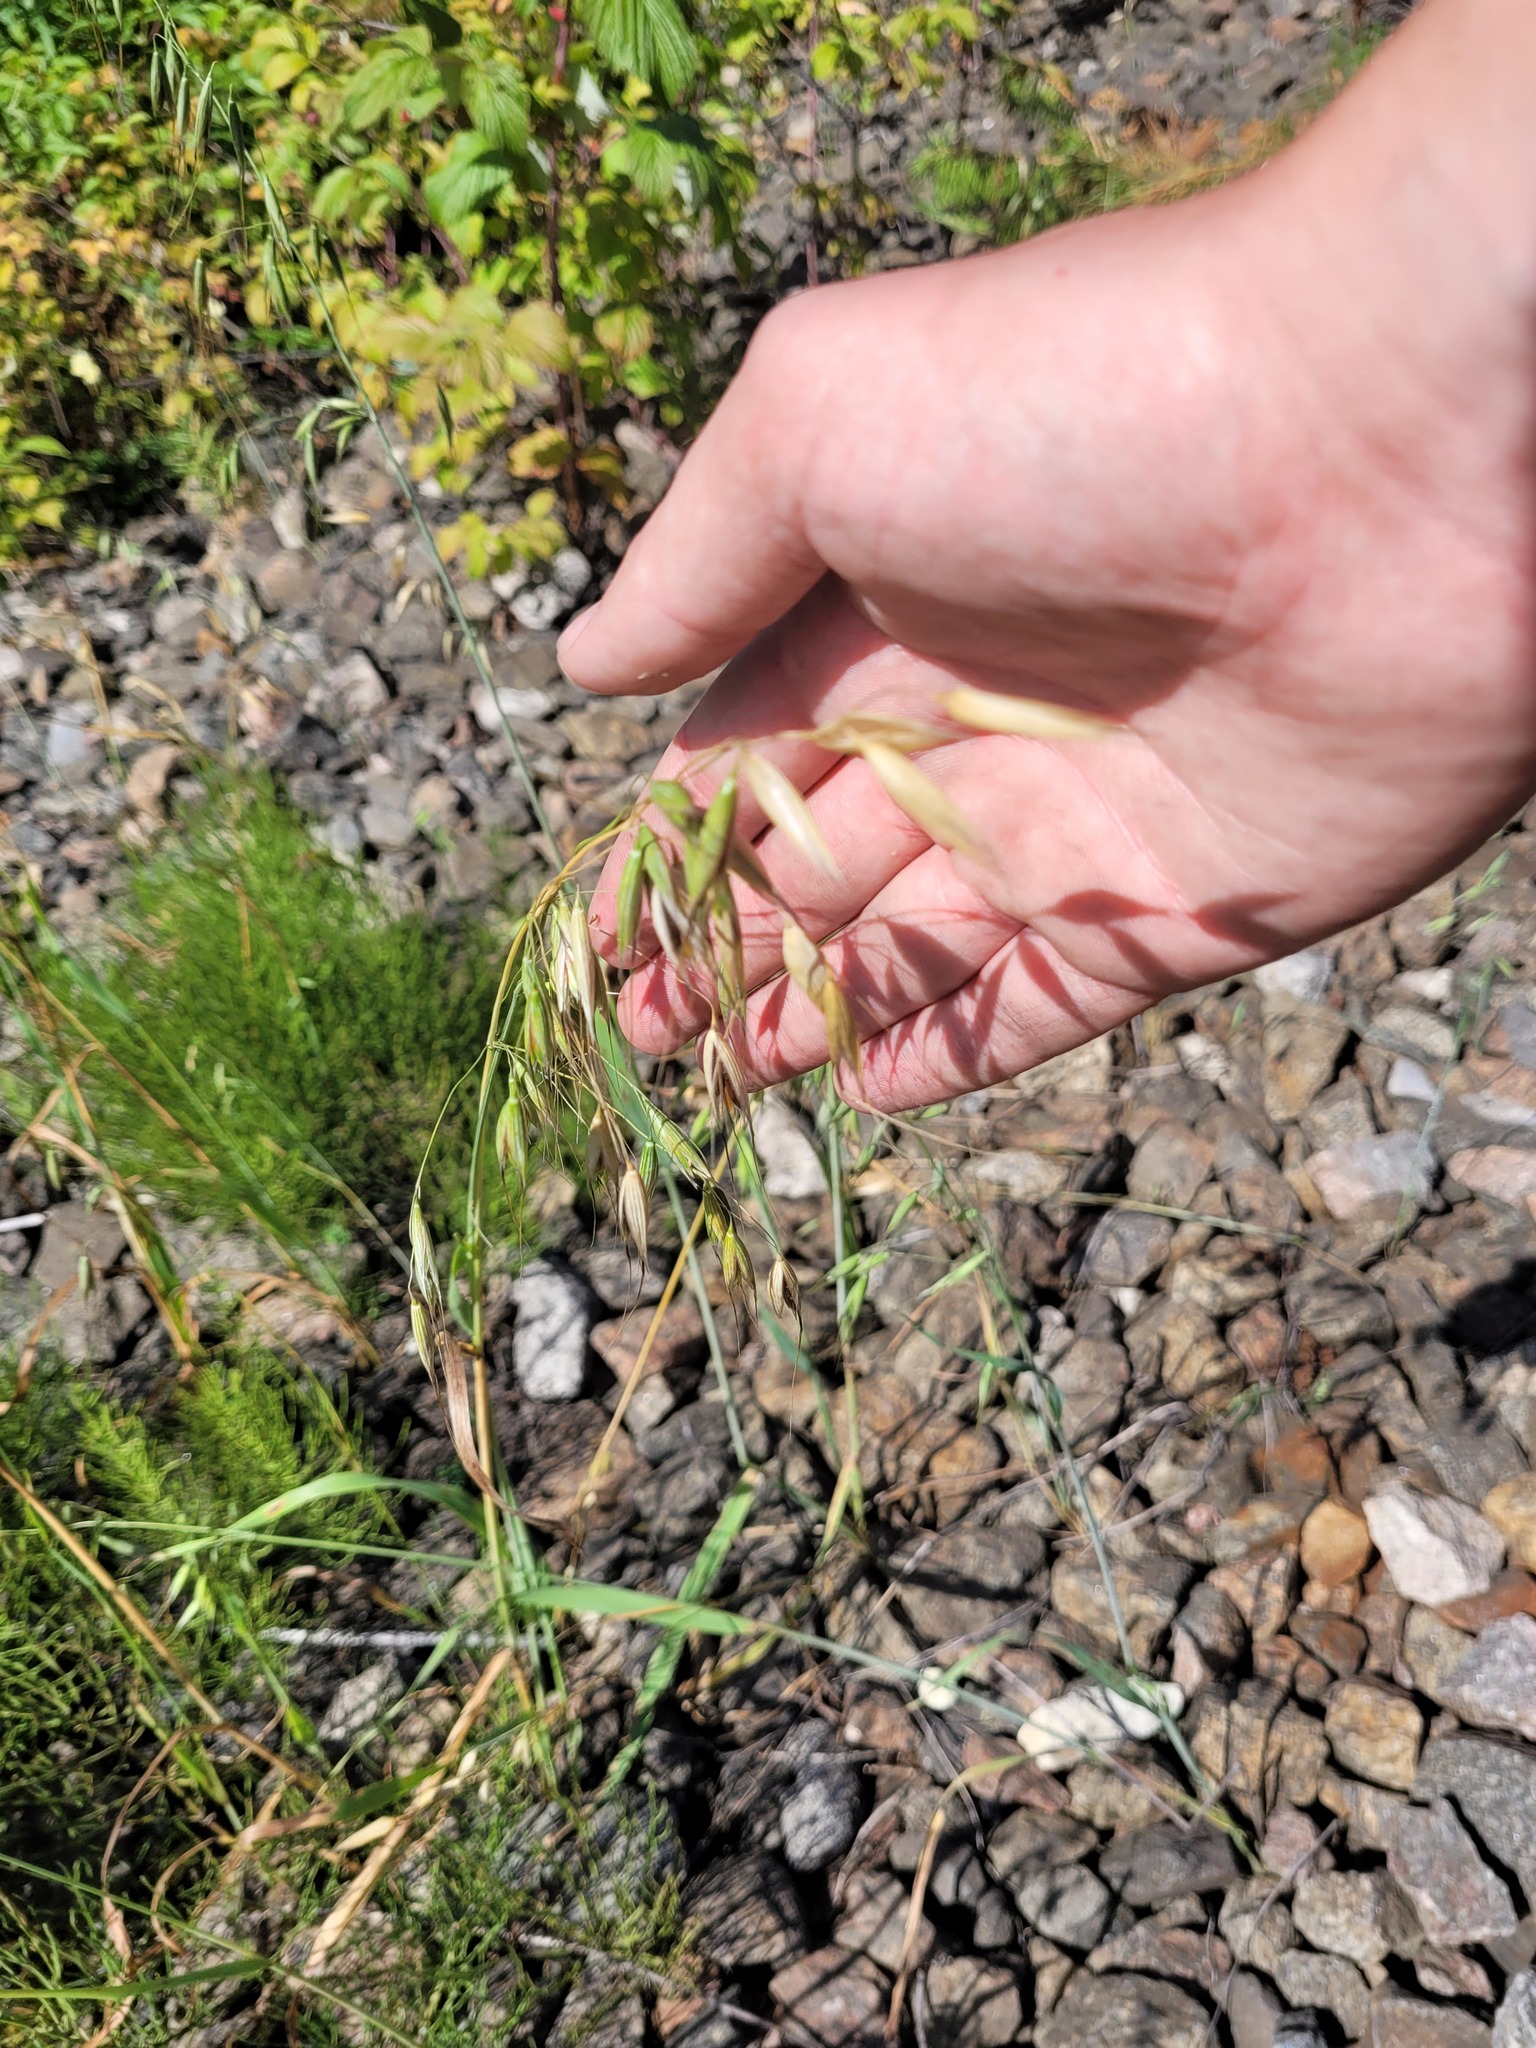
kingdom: Plantae
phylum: Tracheophyta
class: Liliopsida
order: Poales
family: Poaceae
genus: Avena
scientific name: Avena fatua
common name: Wild oat
